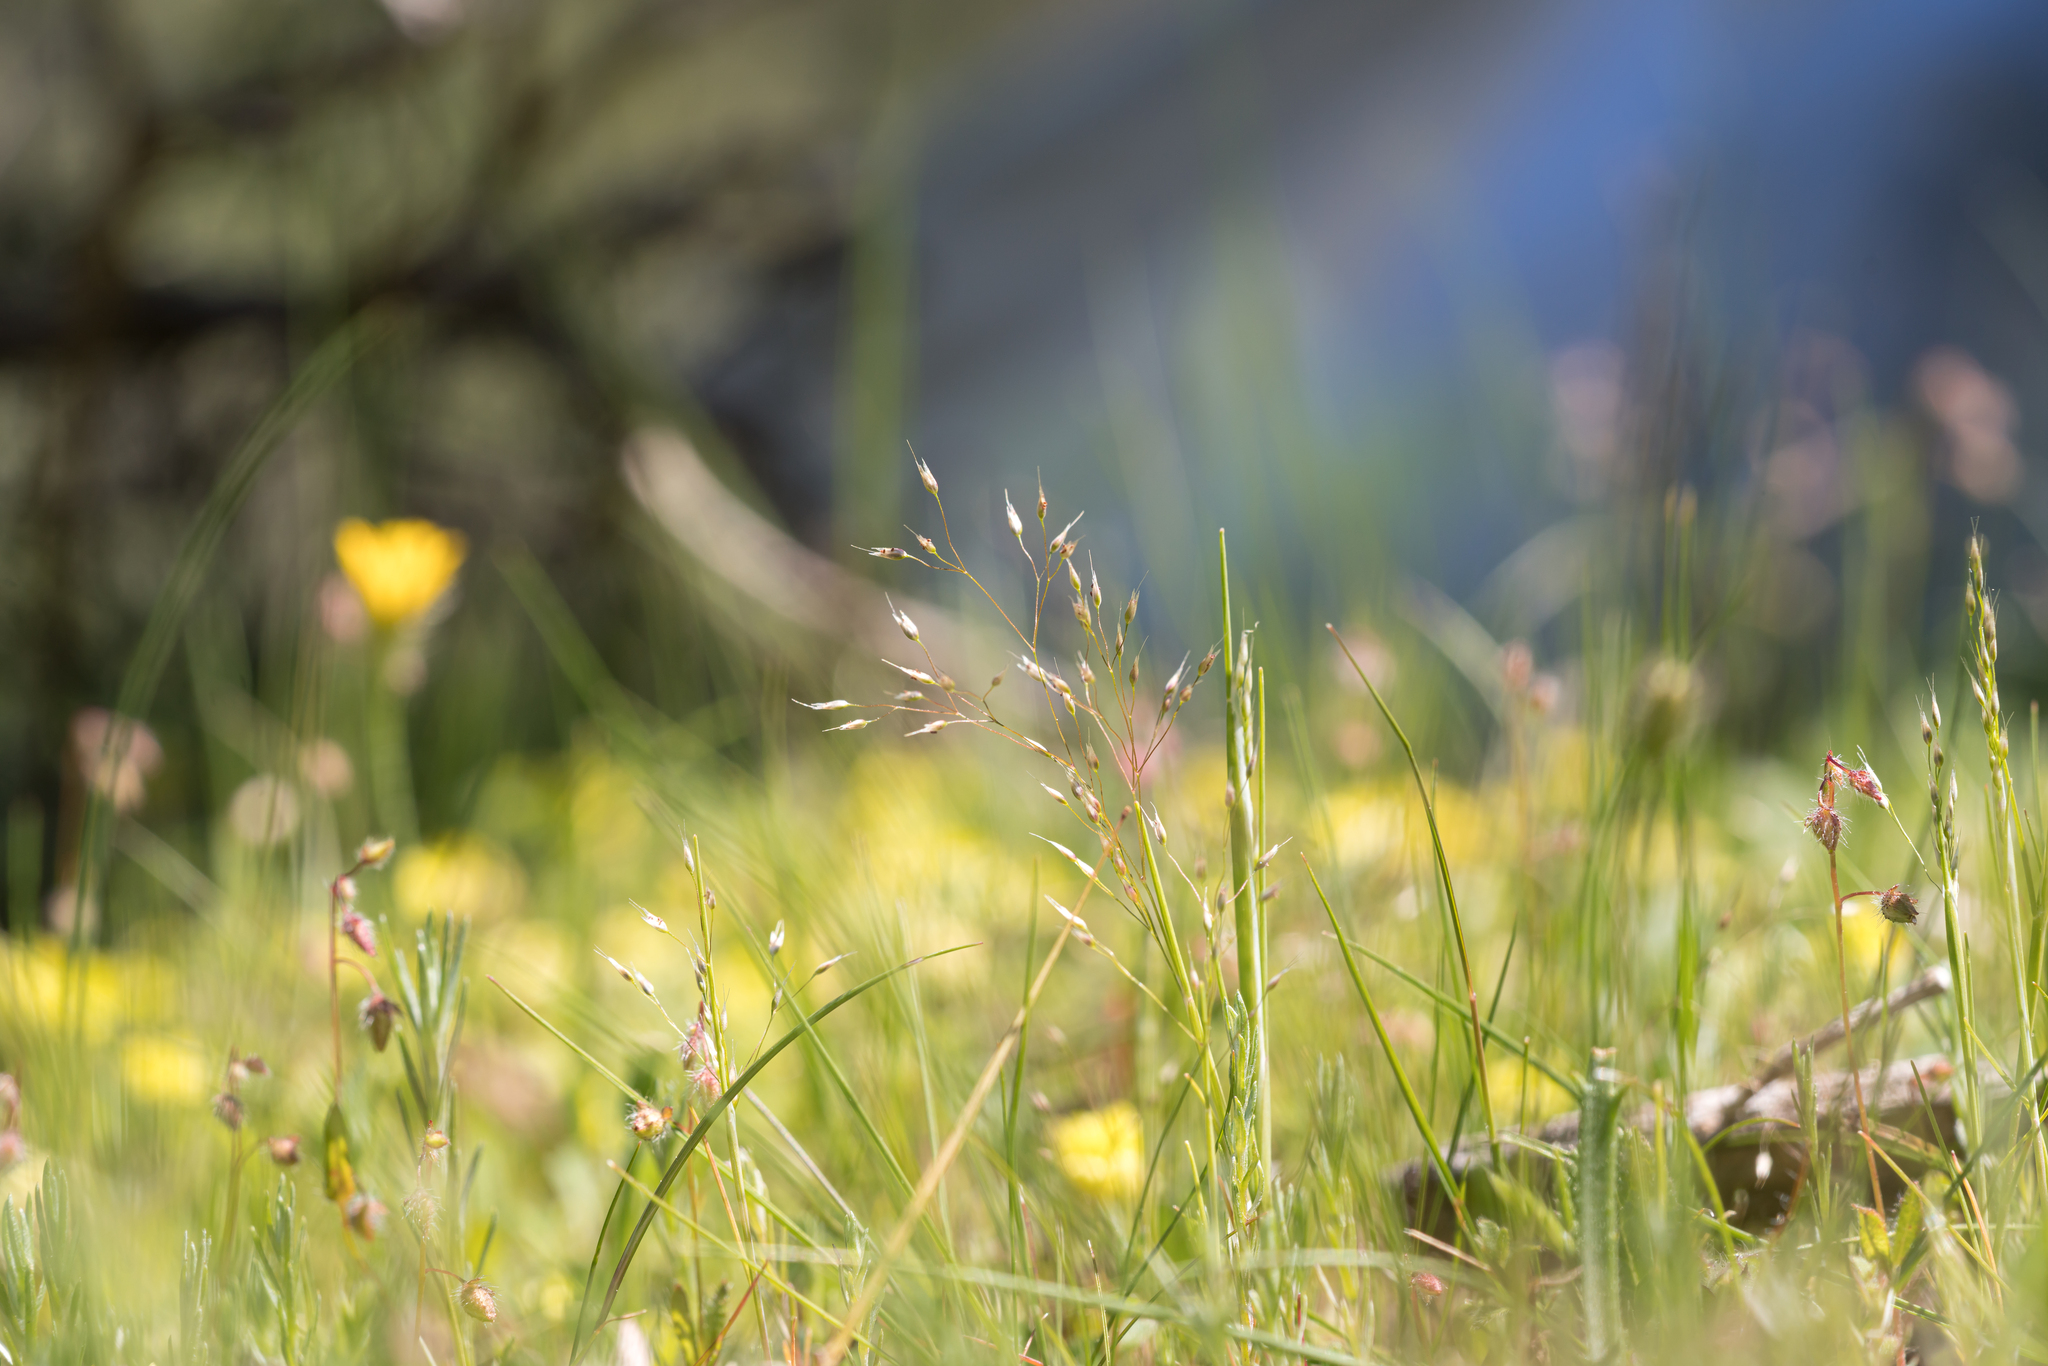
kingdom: Plantae
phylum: Tracheophyta
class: Liliopsida
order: Poales
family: Poaceae
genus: Aira
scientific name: Aira elegans
